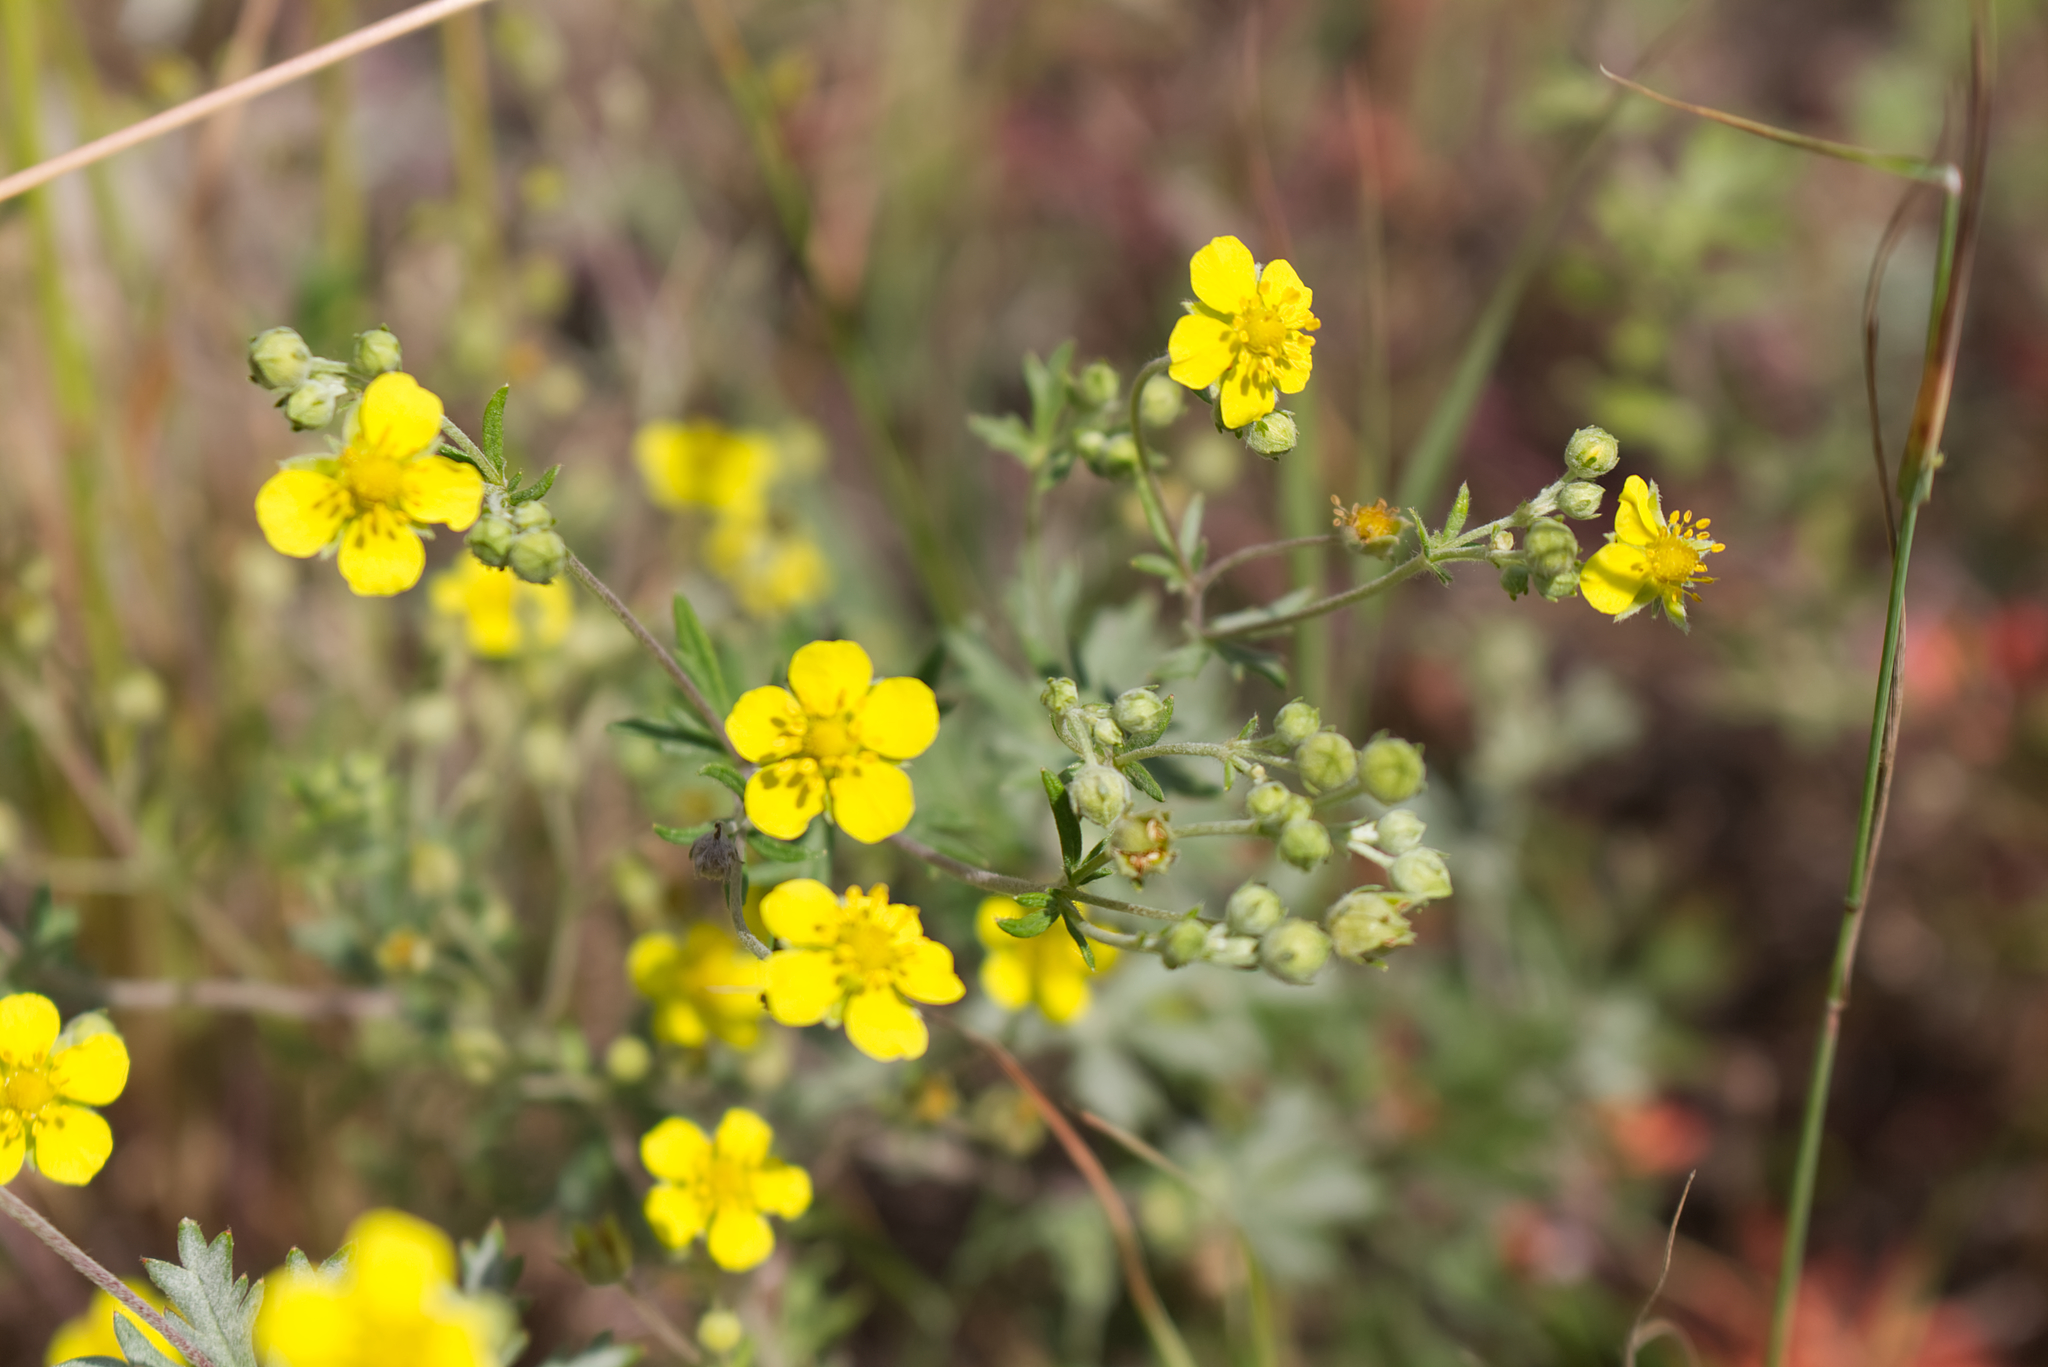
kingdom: Plantae
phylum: Tracheophyta
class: Magnoliopsida
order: Rosales
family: Rosaceae
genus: Potentilla
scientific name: Potentilla argentea
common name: Hoary cinquefoil
